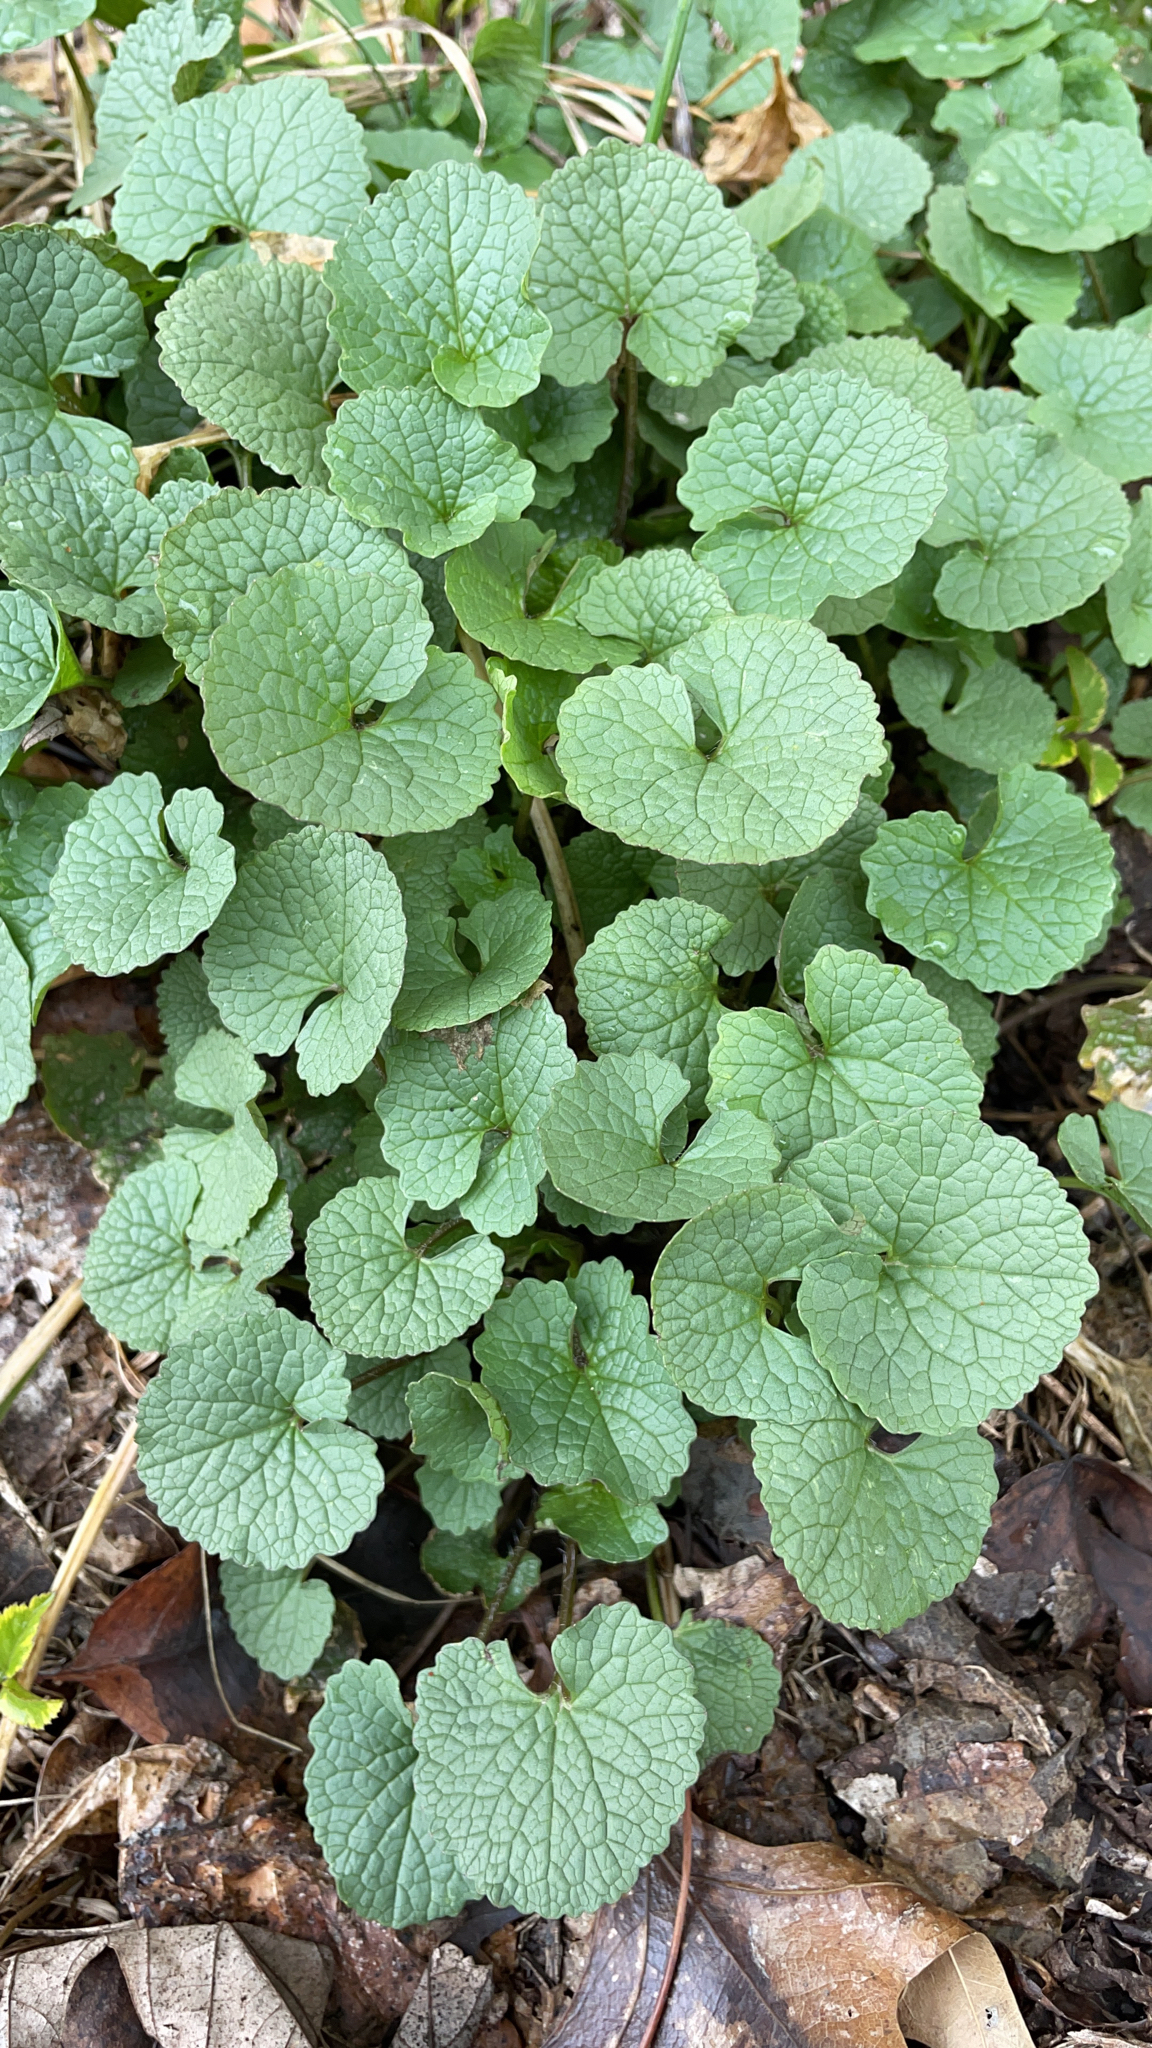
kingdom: Plantae
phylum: Tracheophyta
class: Magnoliopsida
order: Brassicales
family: Brassicaceae
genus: Alliaria
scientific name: Alliaria petiolata
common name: Garlic mustard
